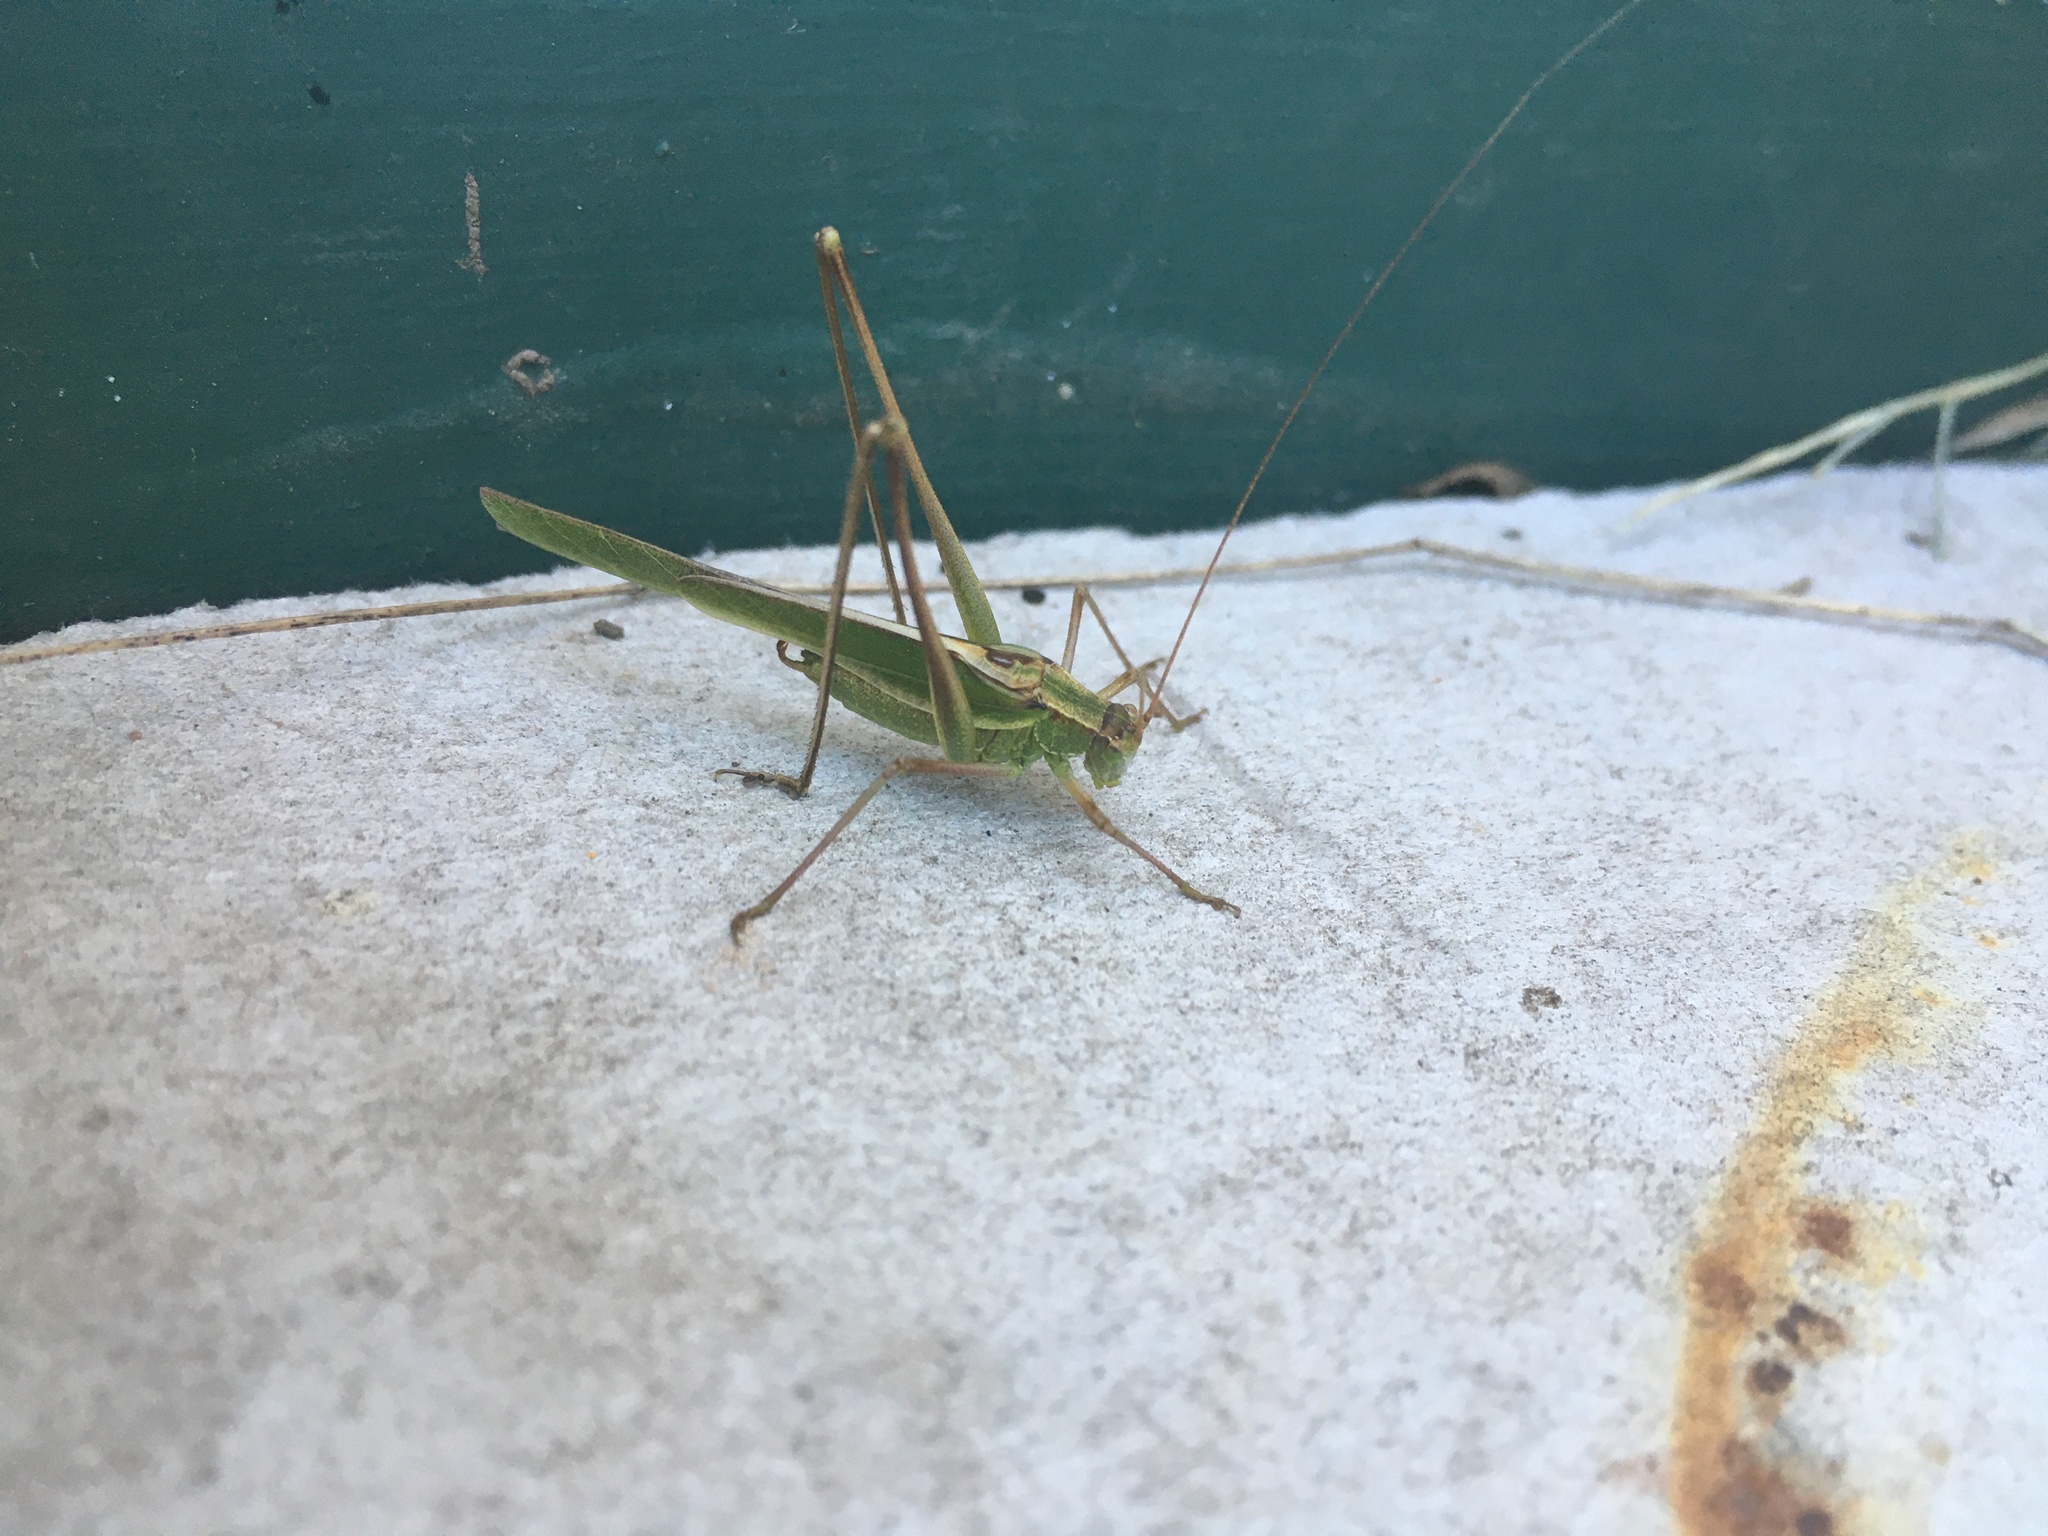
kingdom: Animalia
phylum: Arthropoda
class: Insecta
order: Orthoptera
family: Tettigoniidae
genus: Burgilis
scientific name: Burgilis curta
